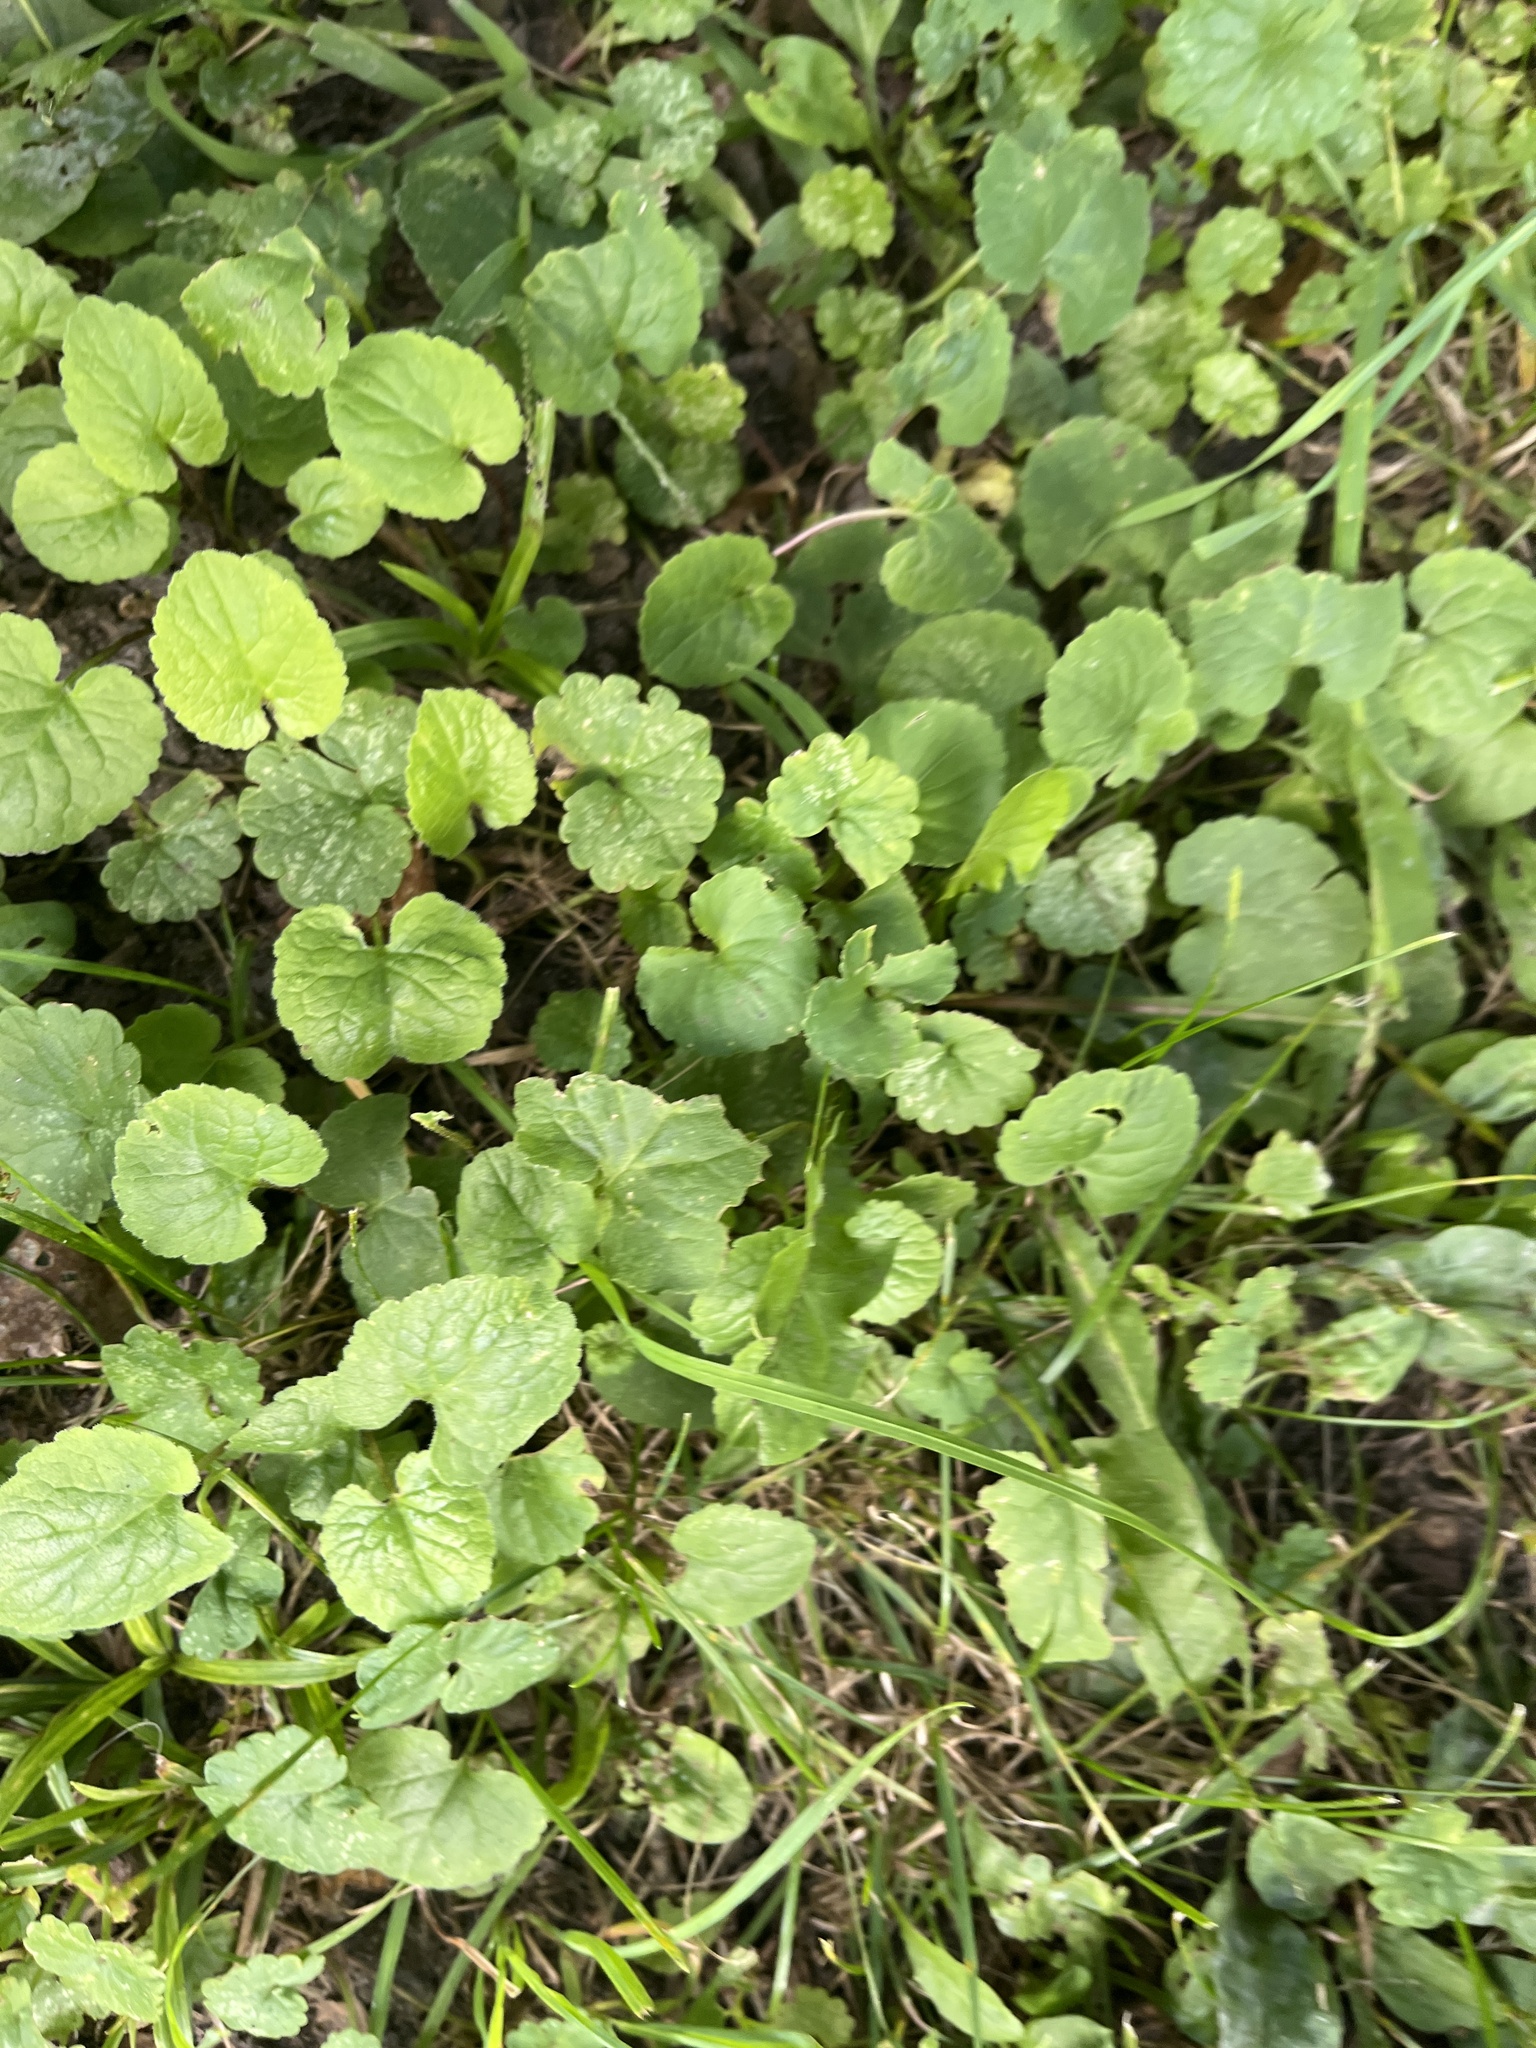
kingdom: Plantae
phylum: Tracheophyta
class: Magnoliopsida
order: Lamiales
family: Lamiaceae
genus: Glechoma
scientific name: Glechoma hederacea
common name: Ground ivy
